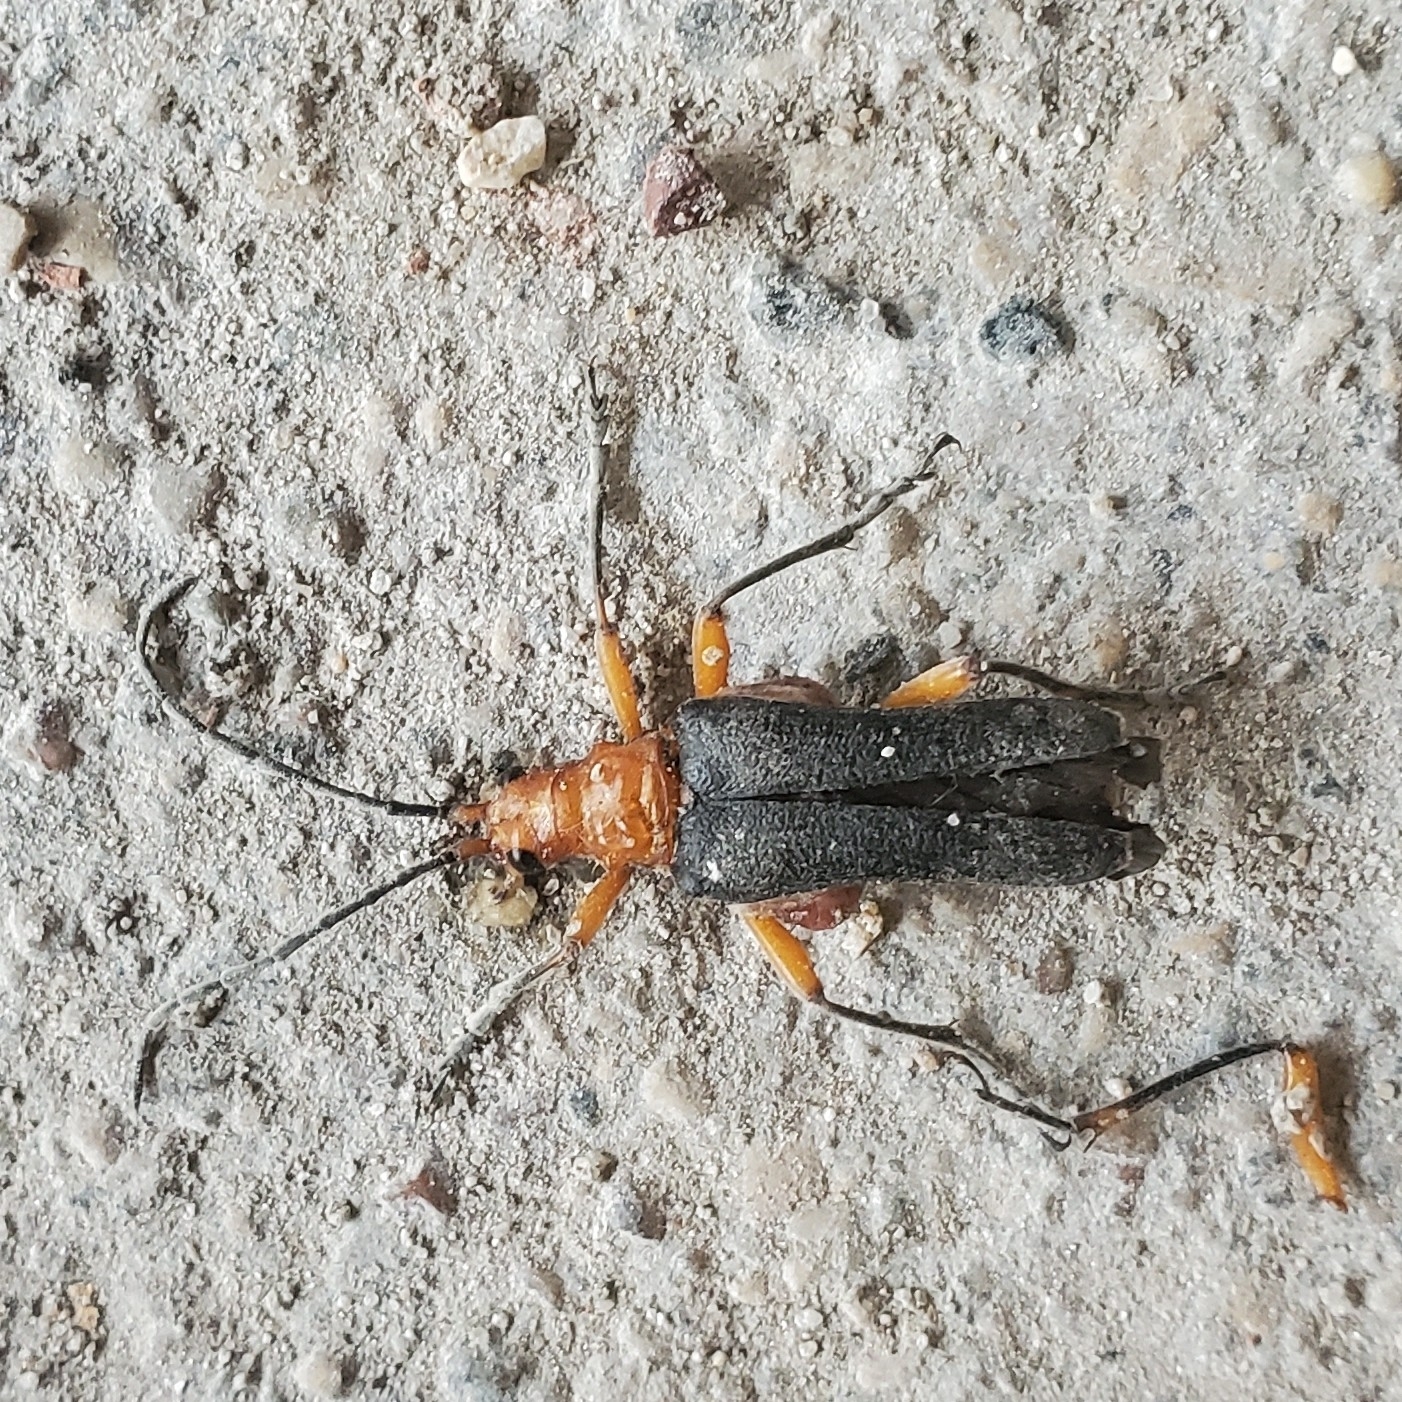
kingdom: Animalia
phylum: Arthropoda
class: Insecta
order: Coleoptera
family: Cerambycidae
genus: Stenocorus
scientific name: Stenocorus schaumii
